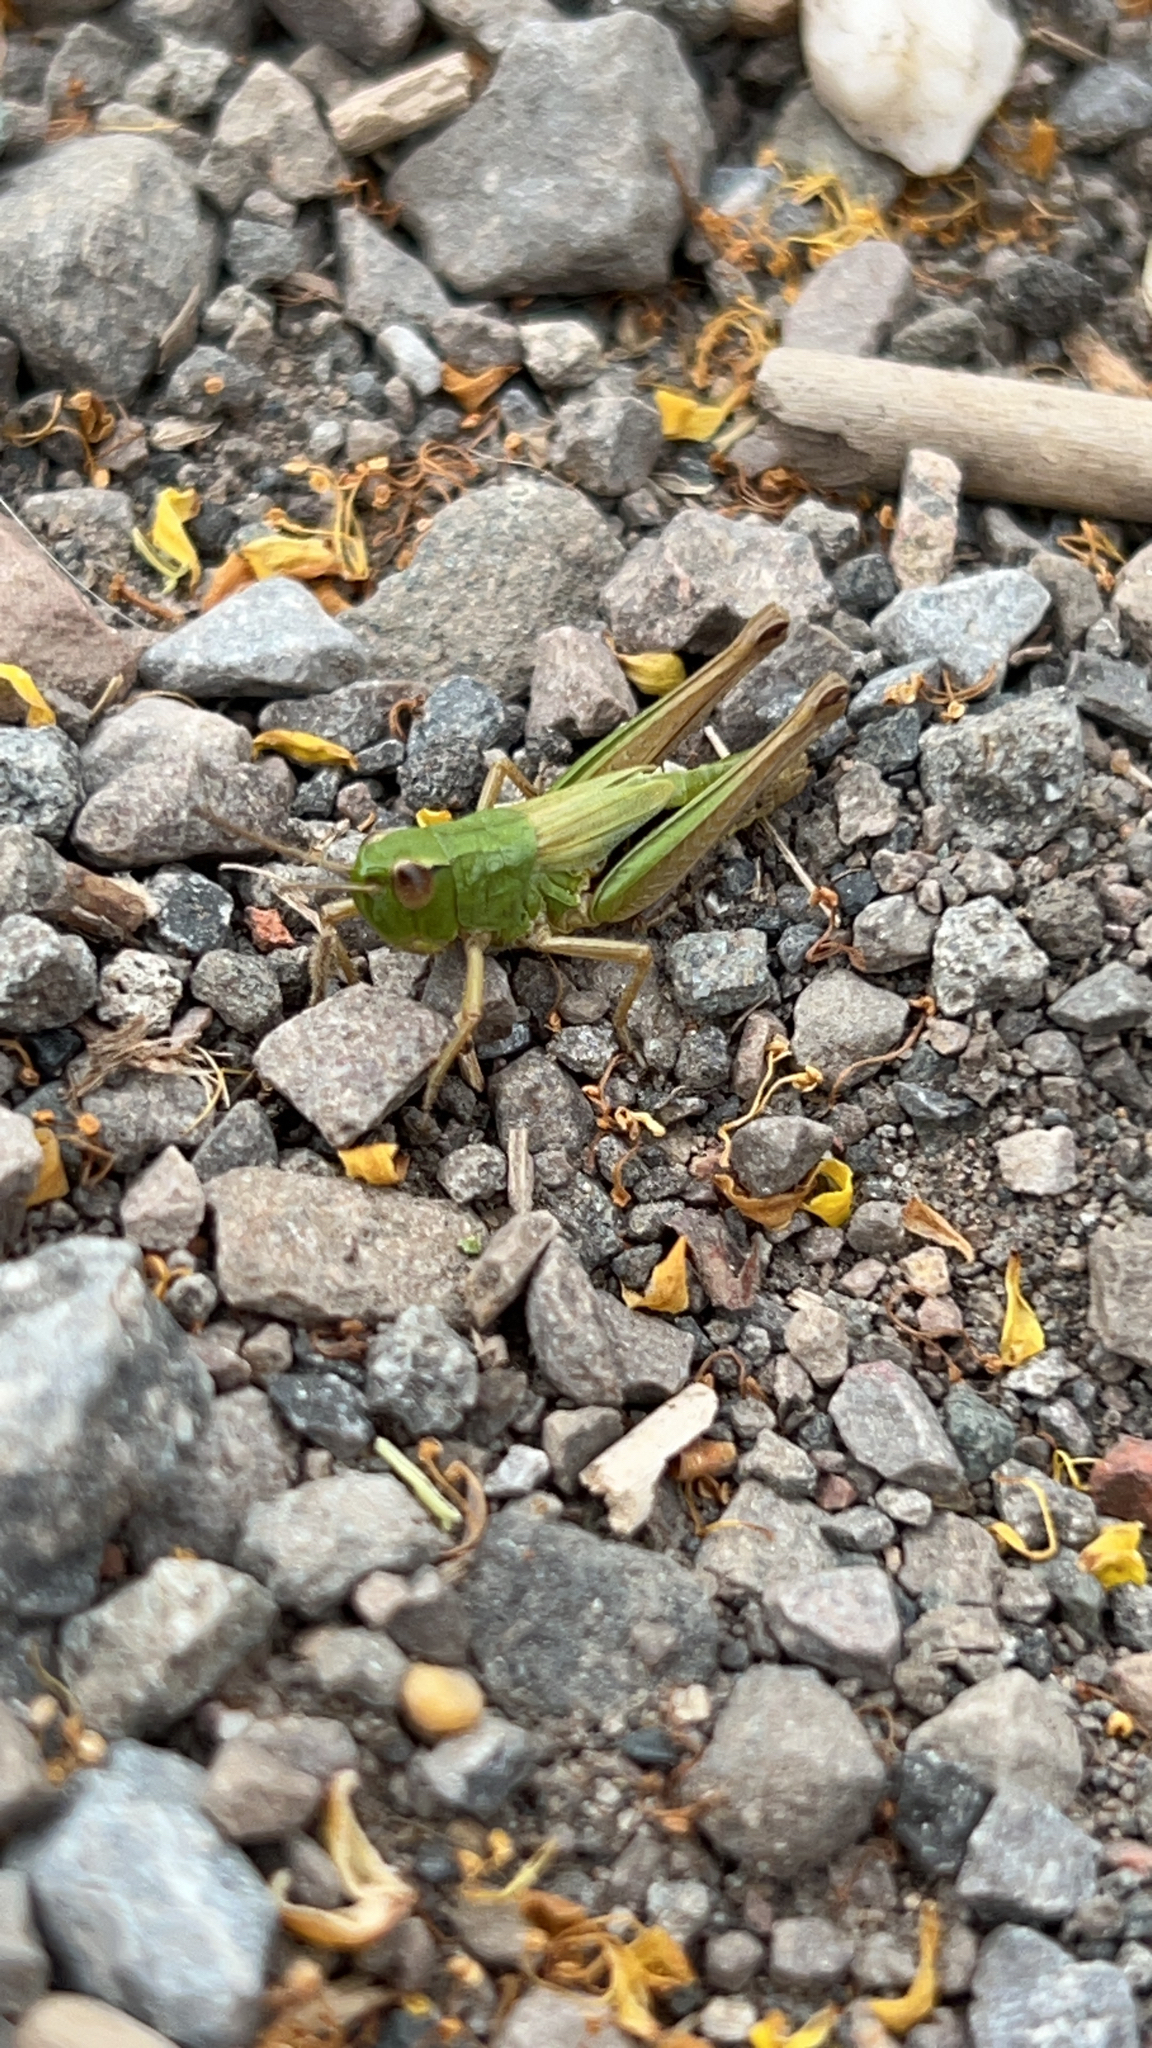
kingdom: Animalia
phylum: Arthropoda
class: Insecta
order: Orthoptera
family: Acrididae
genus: Pseudochorthippus
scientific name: Pseudochorthippus parallelus
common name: Meadow grasshopper
